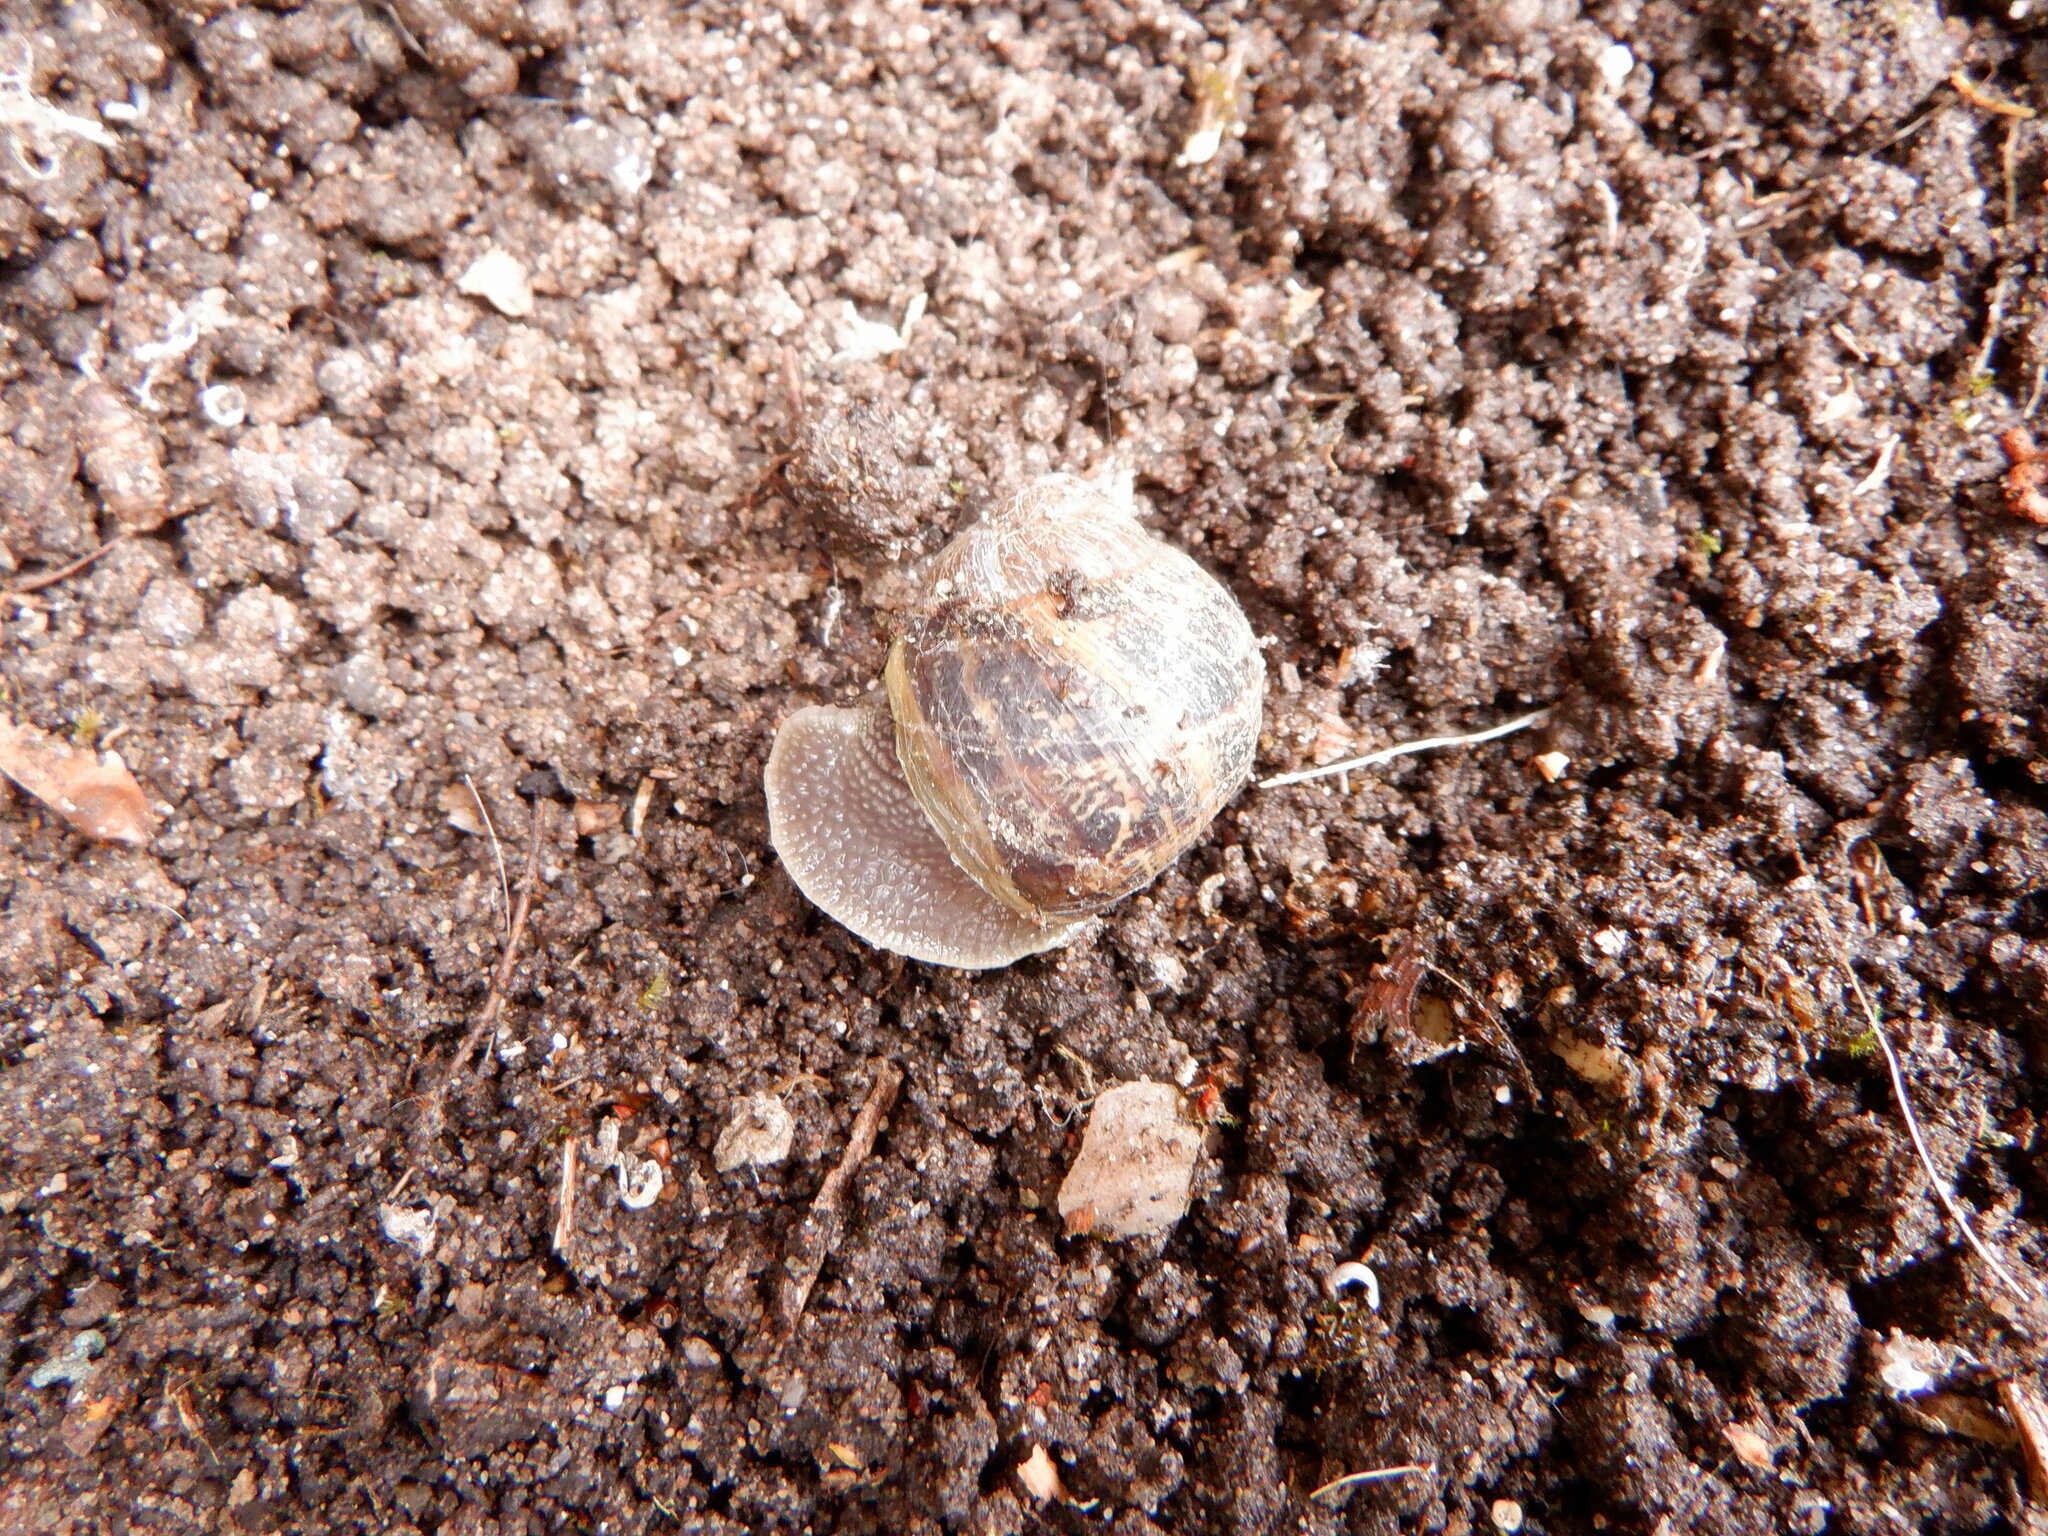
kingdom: Animalia
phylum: Mollusca
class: Gastropoda
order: Stylommatophora
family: Helicidae
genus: Cornu
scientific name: Cornu aspersum
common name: Brown garden snail
